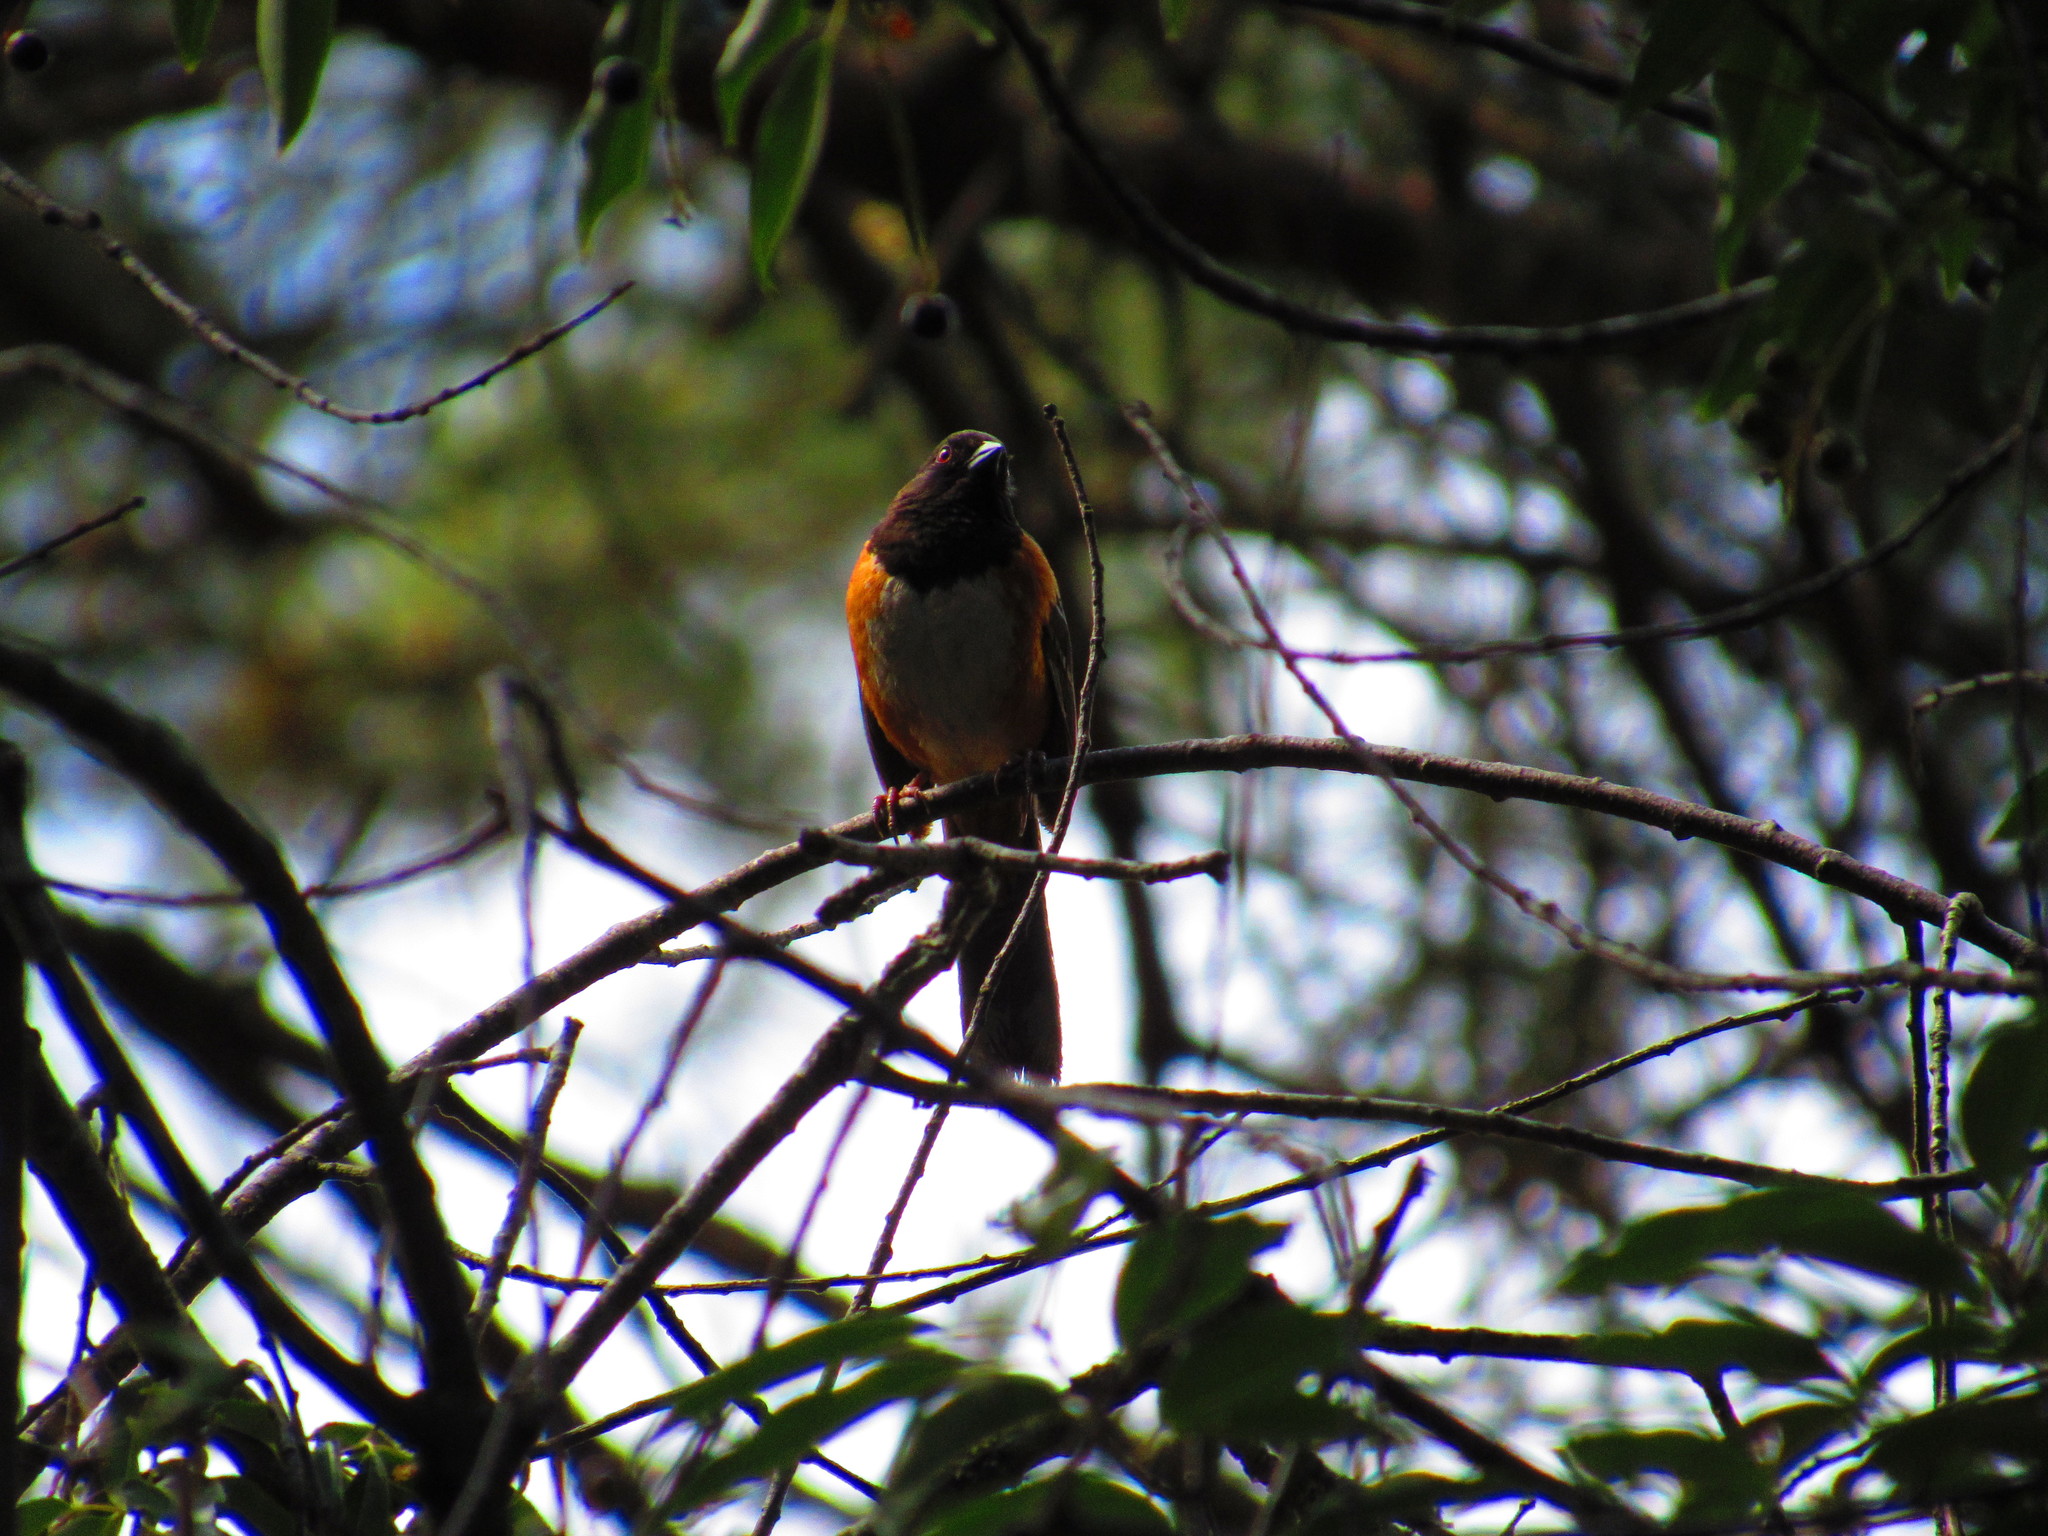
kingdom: Animalia
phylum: Chordata
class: Aves
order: Passeriformes
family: Passerellidae
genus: Pipilo
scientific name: Pipilo maculatus
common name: Spotted towhee
